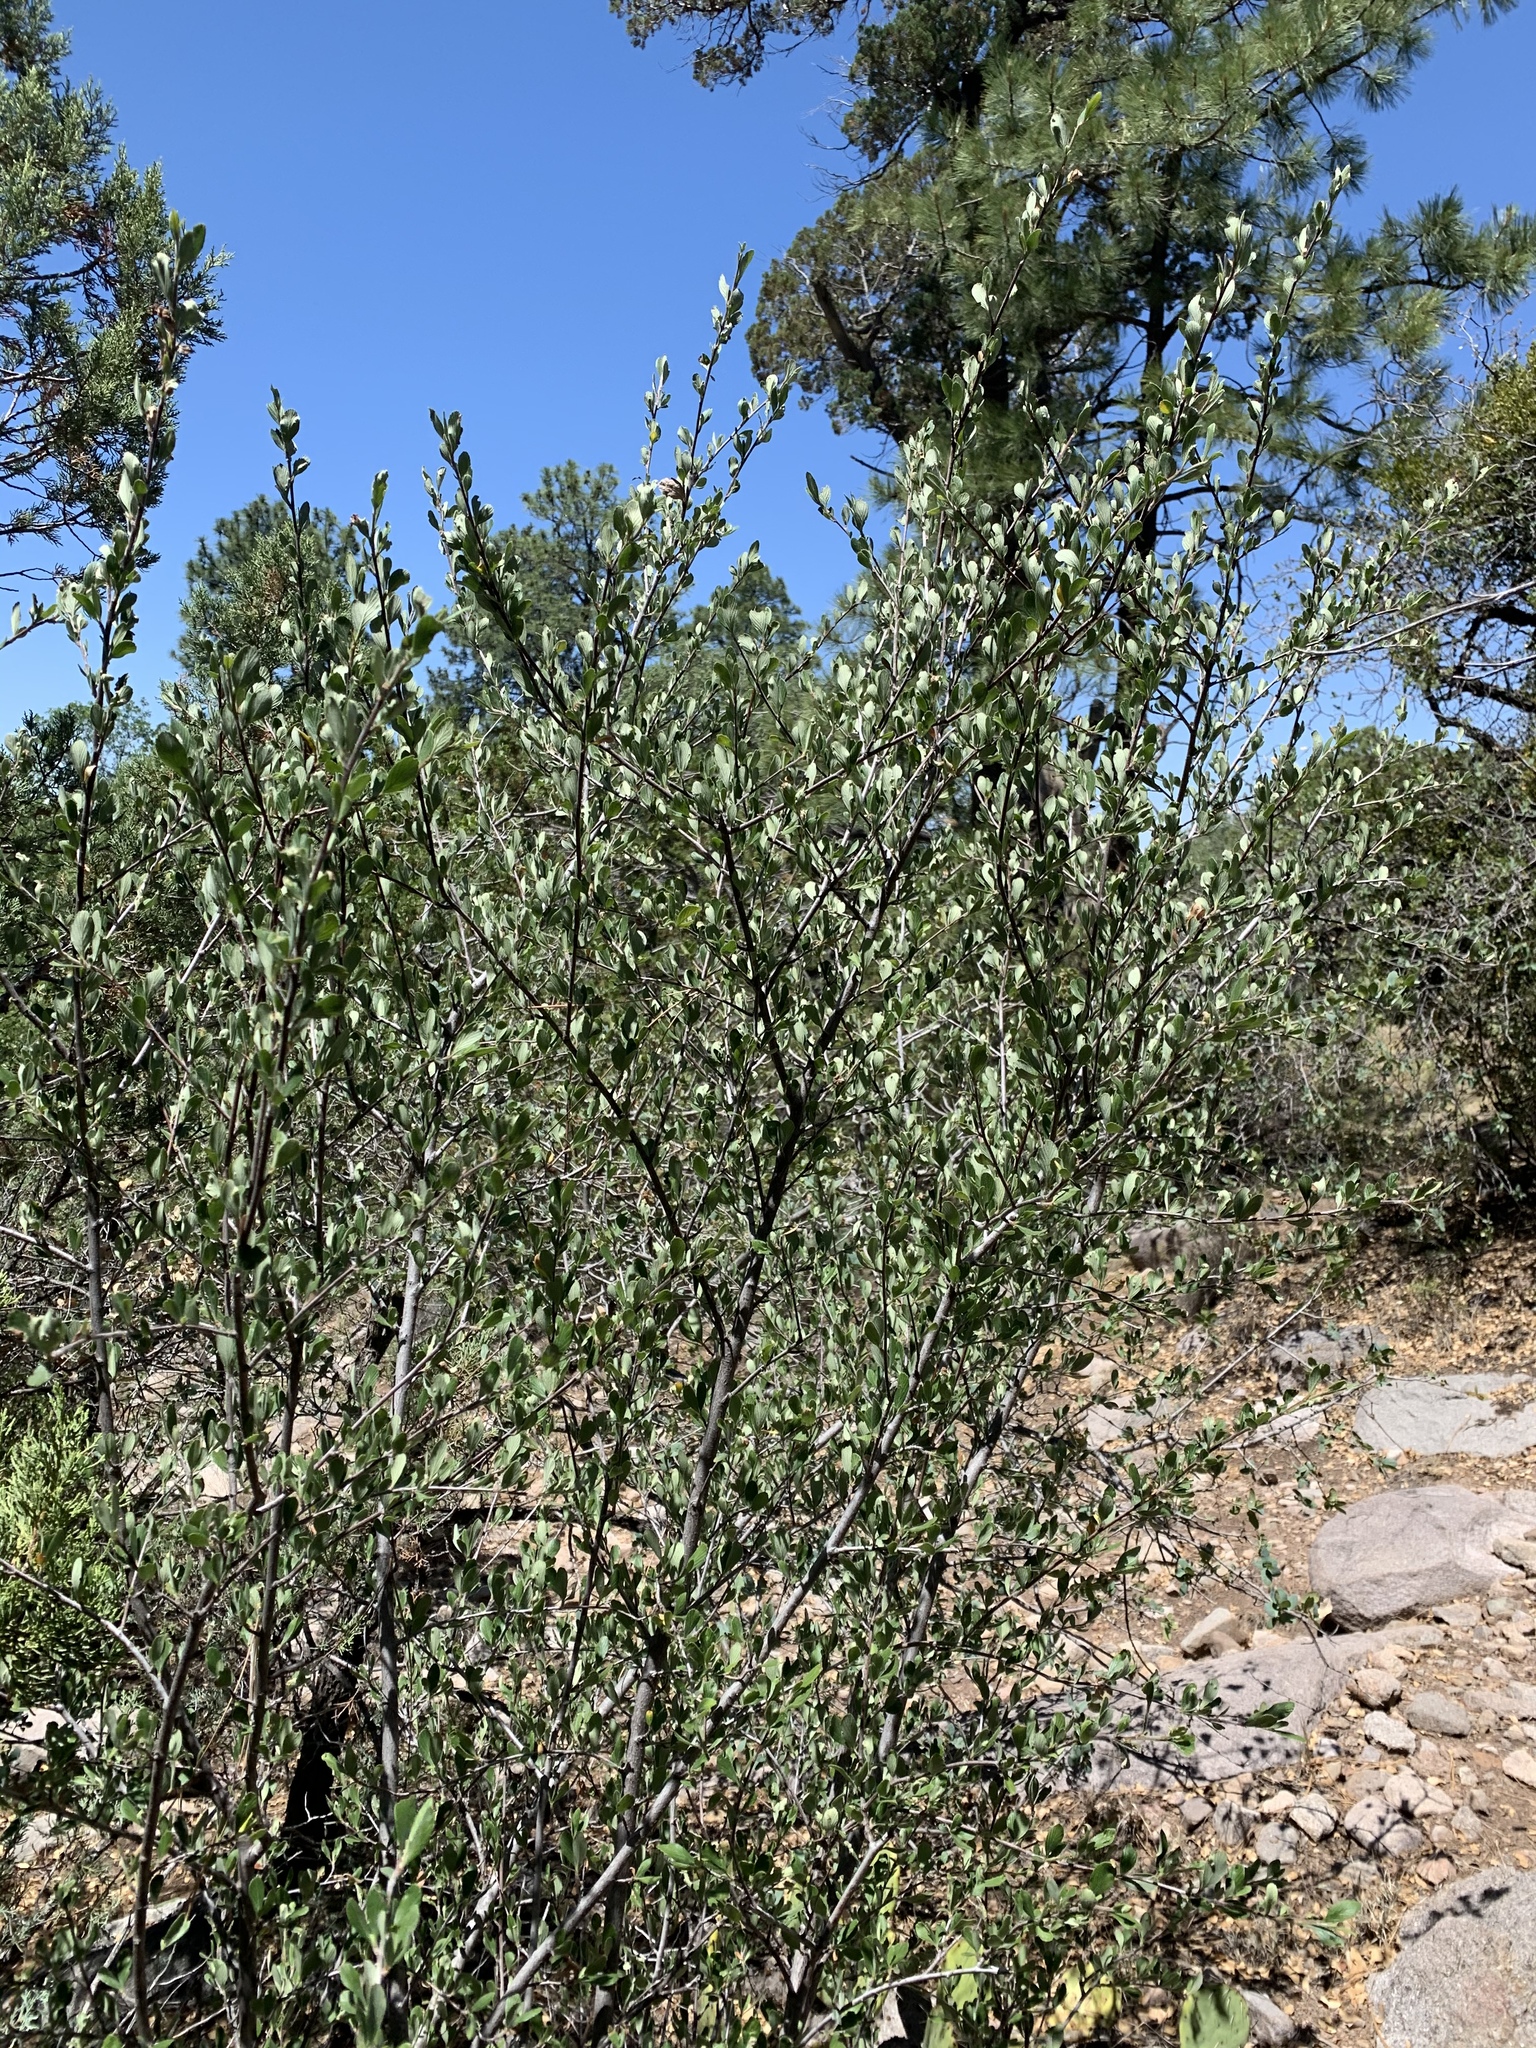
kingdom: Plantae
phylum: Tracheophyta
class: Magnoliopsida
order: Rosales
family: Rosaceae
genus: Cercocarpus
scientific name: Cercocarpus breviflorus
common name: Wright's mountain-mahogany
